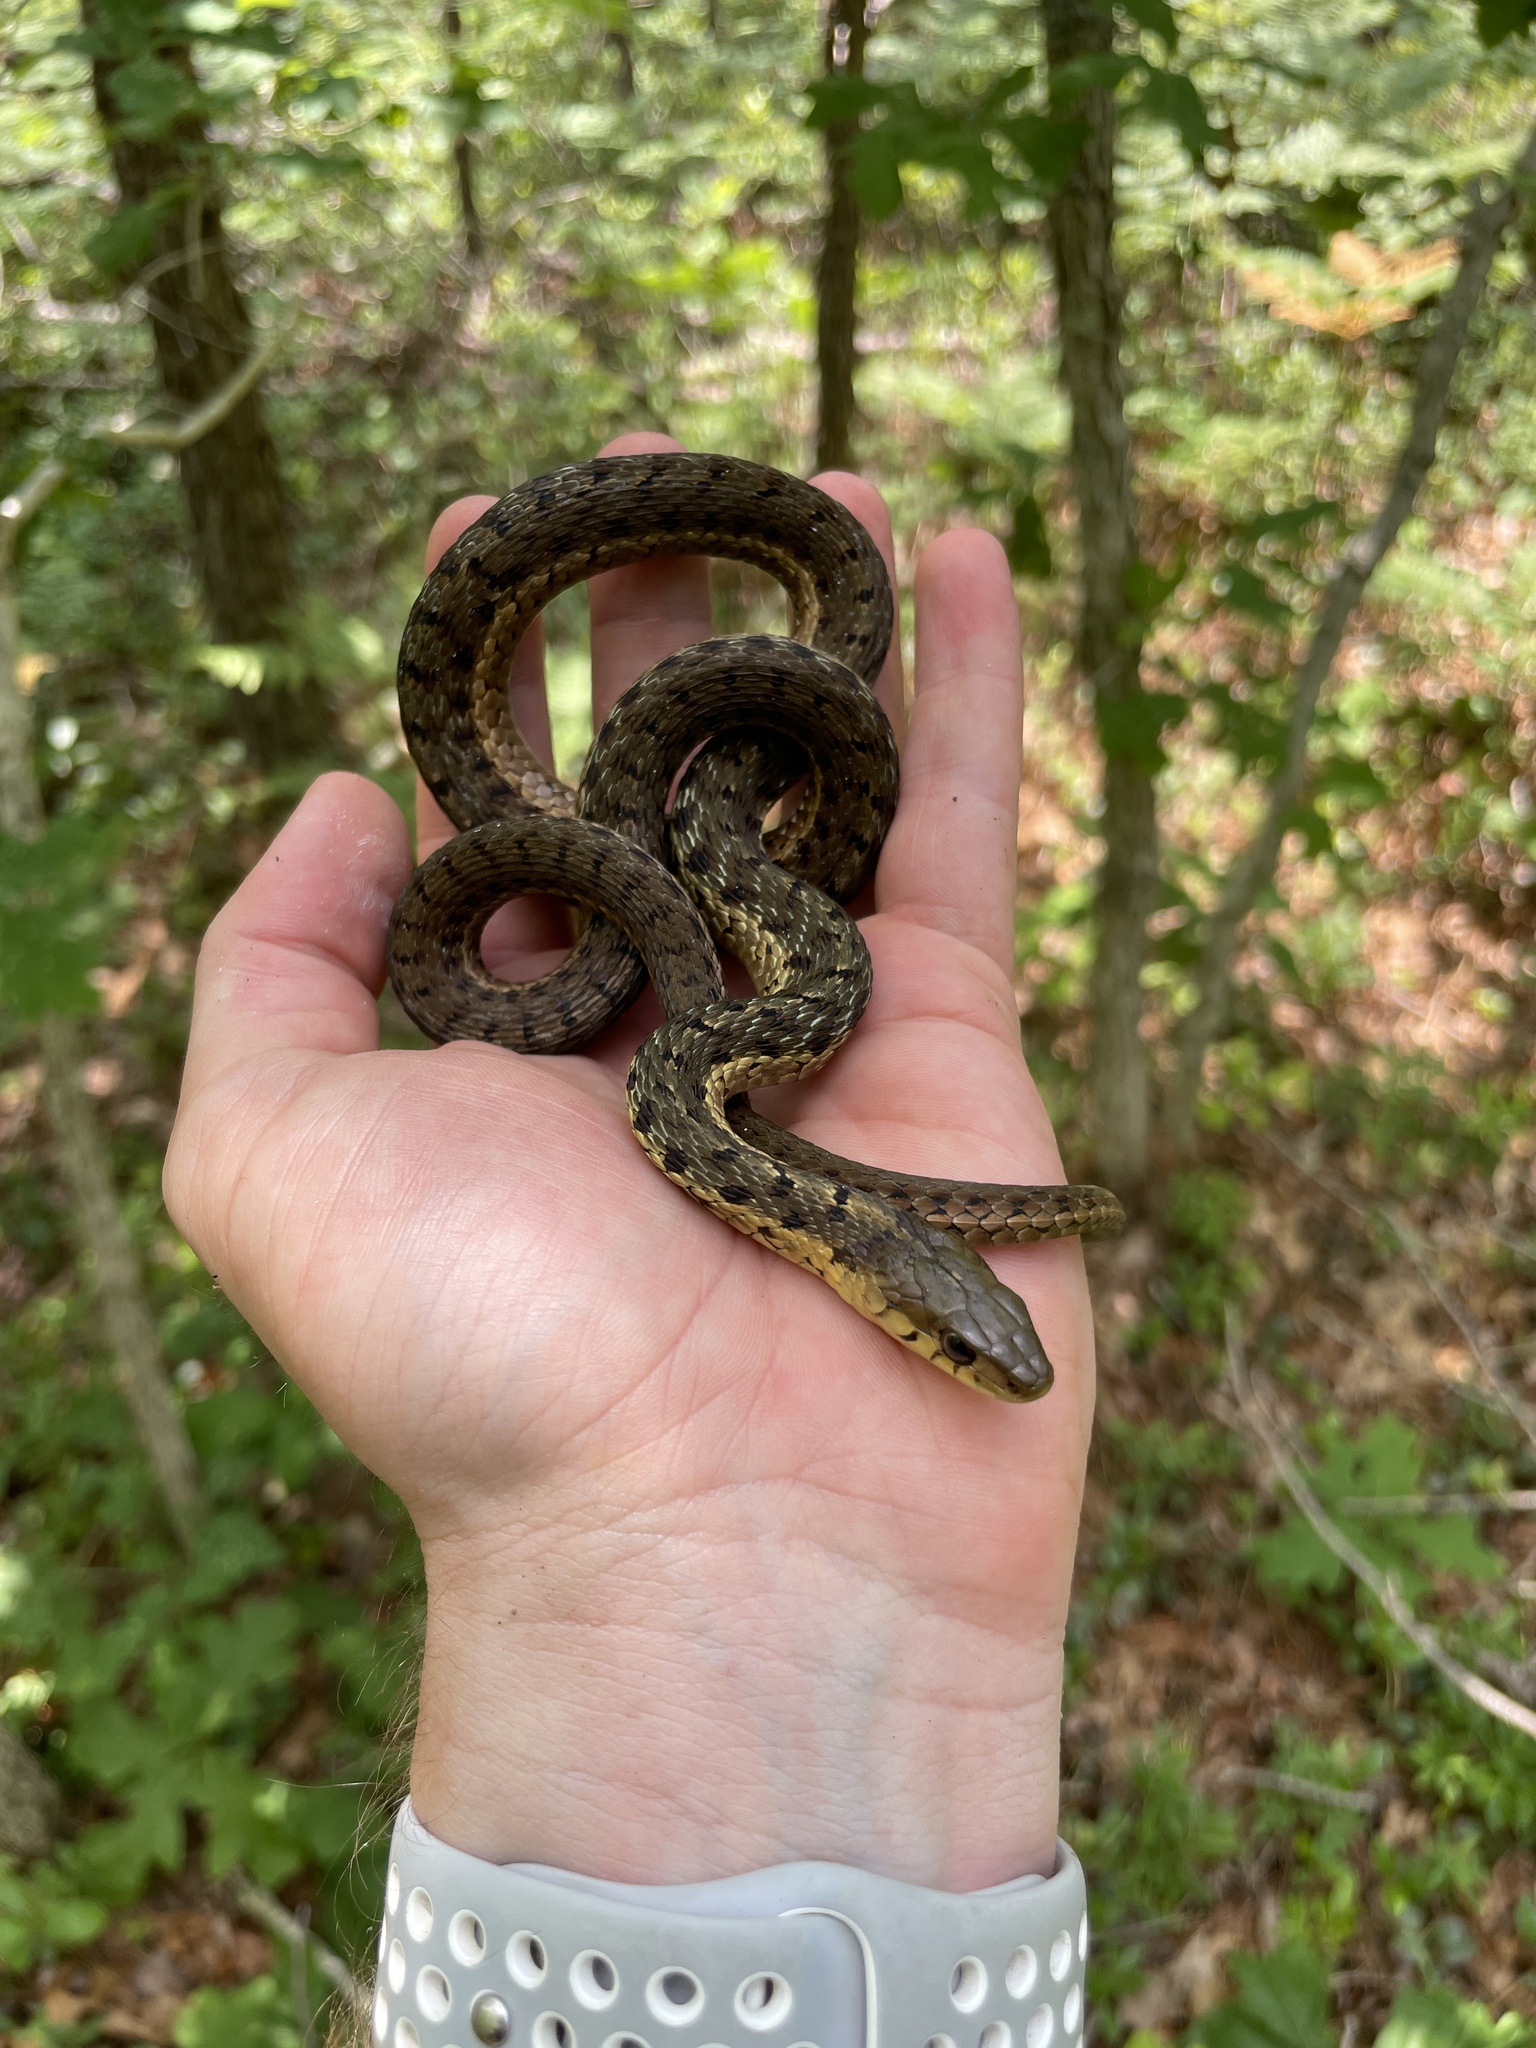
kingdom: Animalia
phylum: Chordata
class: Squamata
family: Colubridae
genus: Thamnophis
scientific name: Thamnophis sirtalis
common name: Common garter snake
